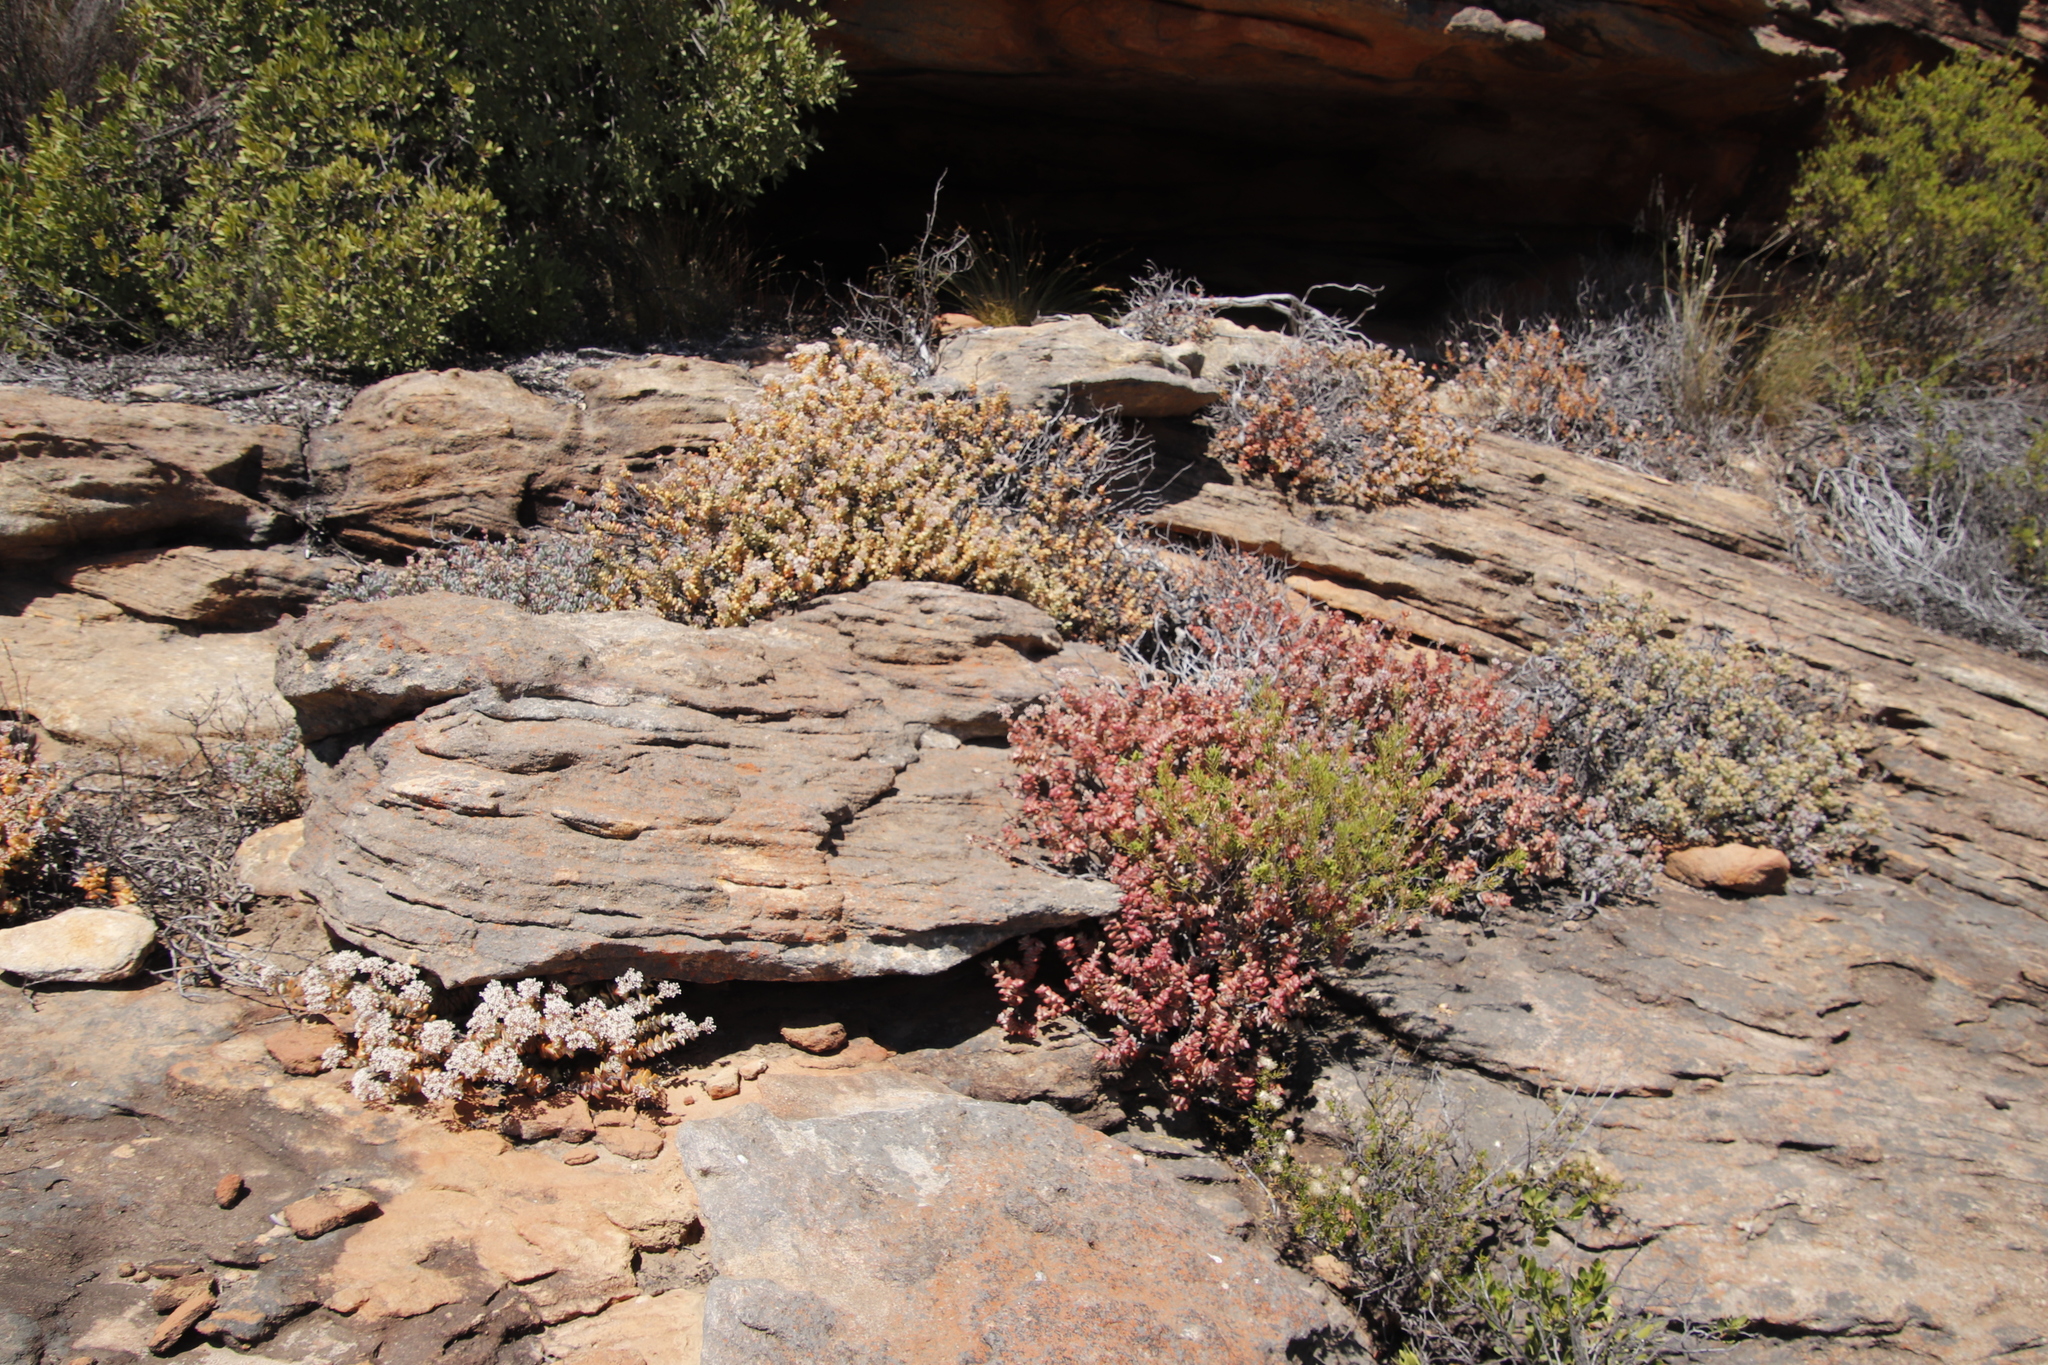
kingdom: Plantae
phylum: Tracheophyta
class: Magnoliopsida
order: Saxifragales
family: Crassulaceae
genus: Crassula
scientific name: Crassula rupestris
